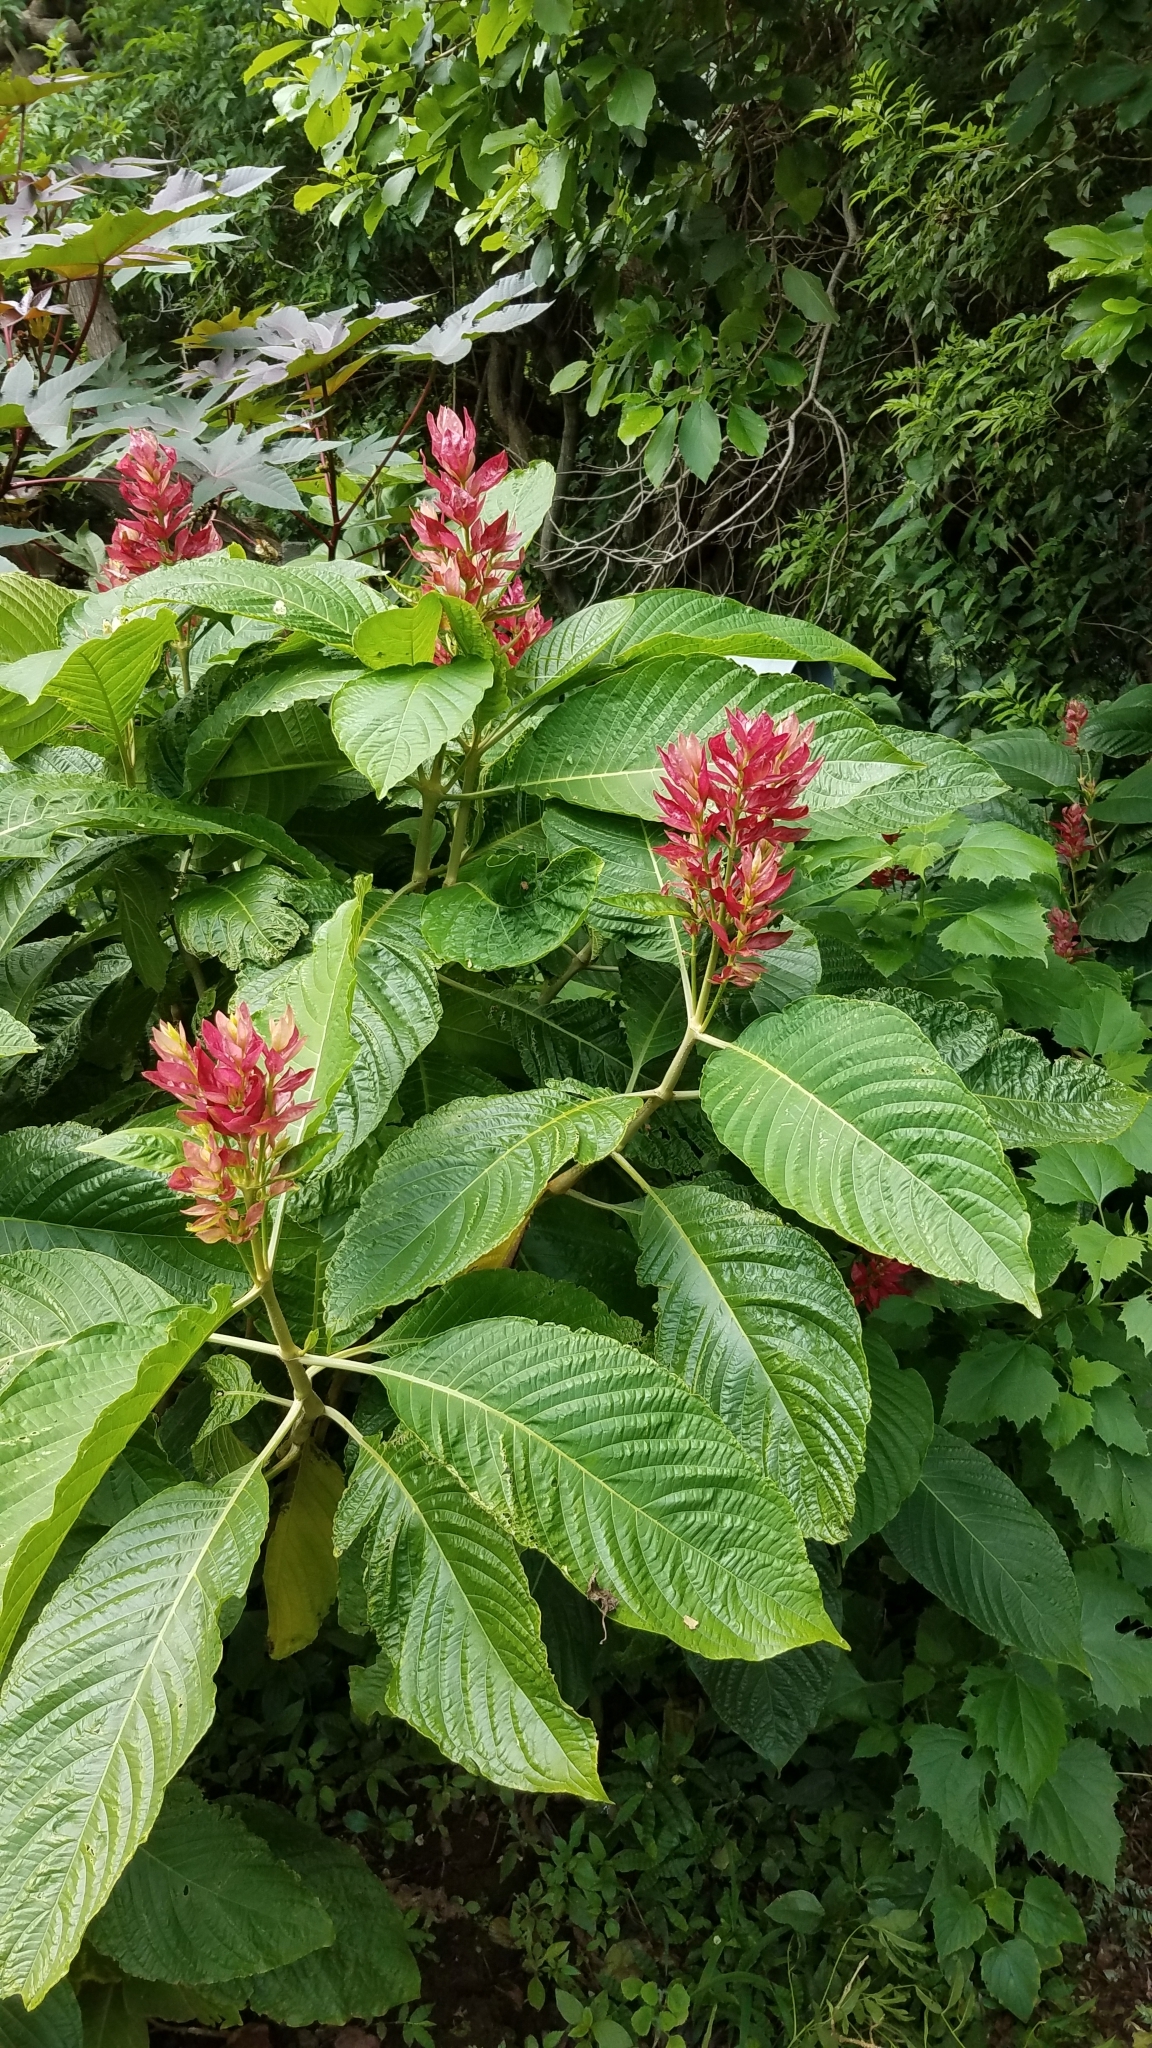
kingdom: Plantae
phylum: Tracheophyta
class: Magnoliopsida
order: Lamiales
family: Acanthaceae
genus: Megaskepasma
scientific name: Megaskepasma erythrochlamys
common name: Brazilian red-cloak
